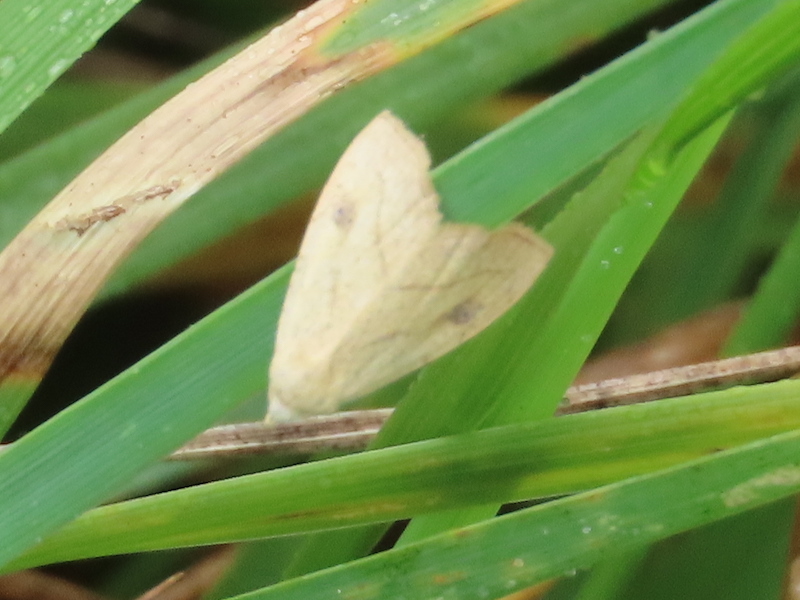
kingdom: Animalia
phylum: Arthropoda
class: Insecta
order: Lepidoptera
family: Erebidae
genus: Rivula
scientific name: Rivula propinqualis
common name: Spotted grass moth
